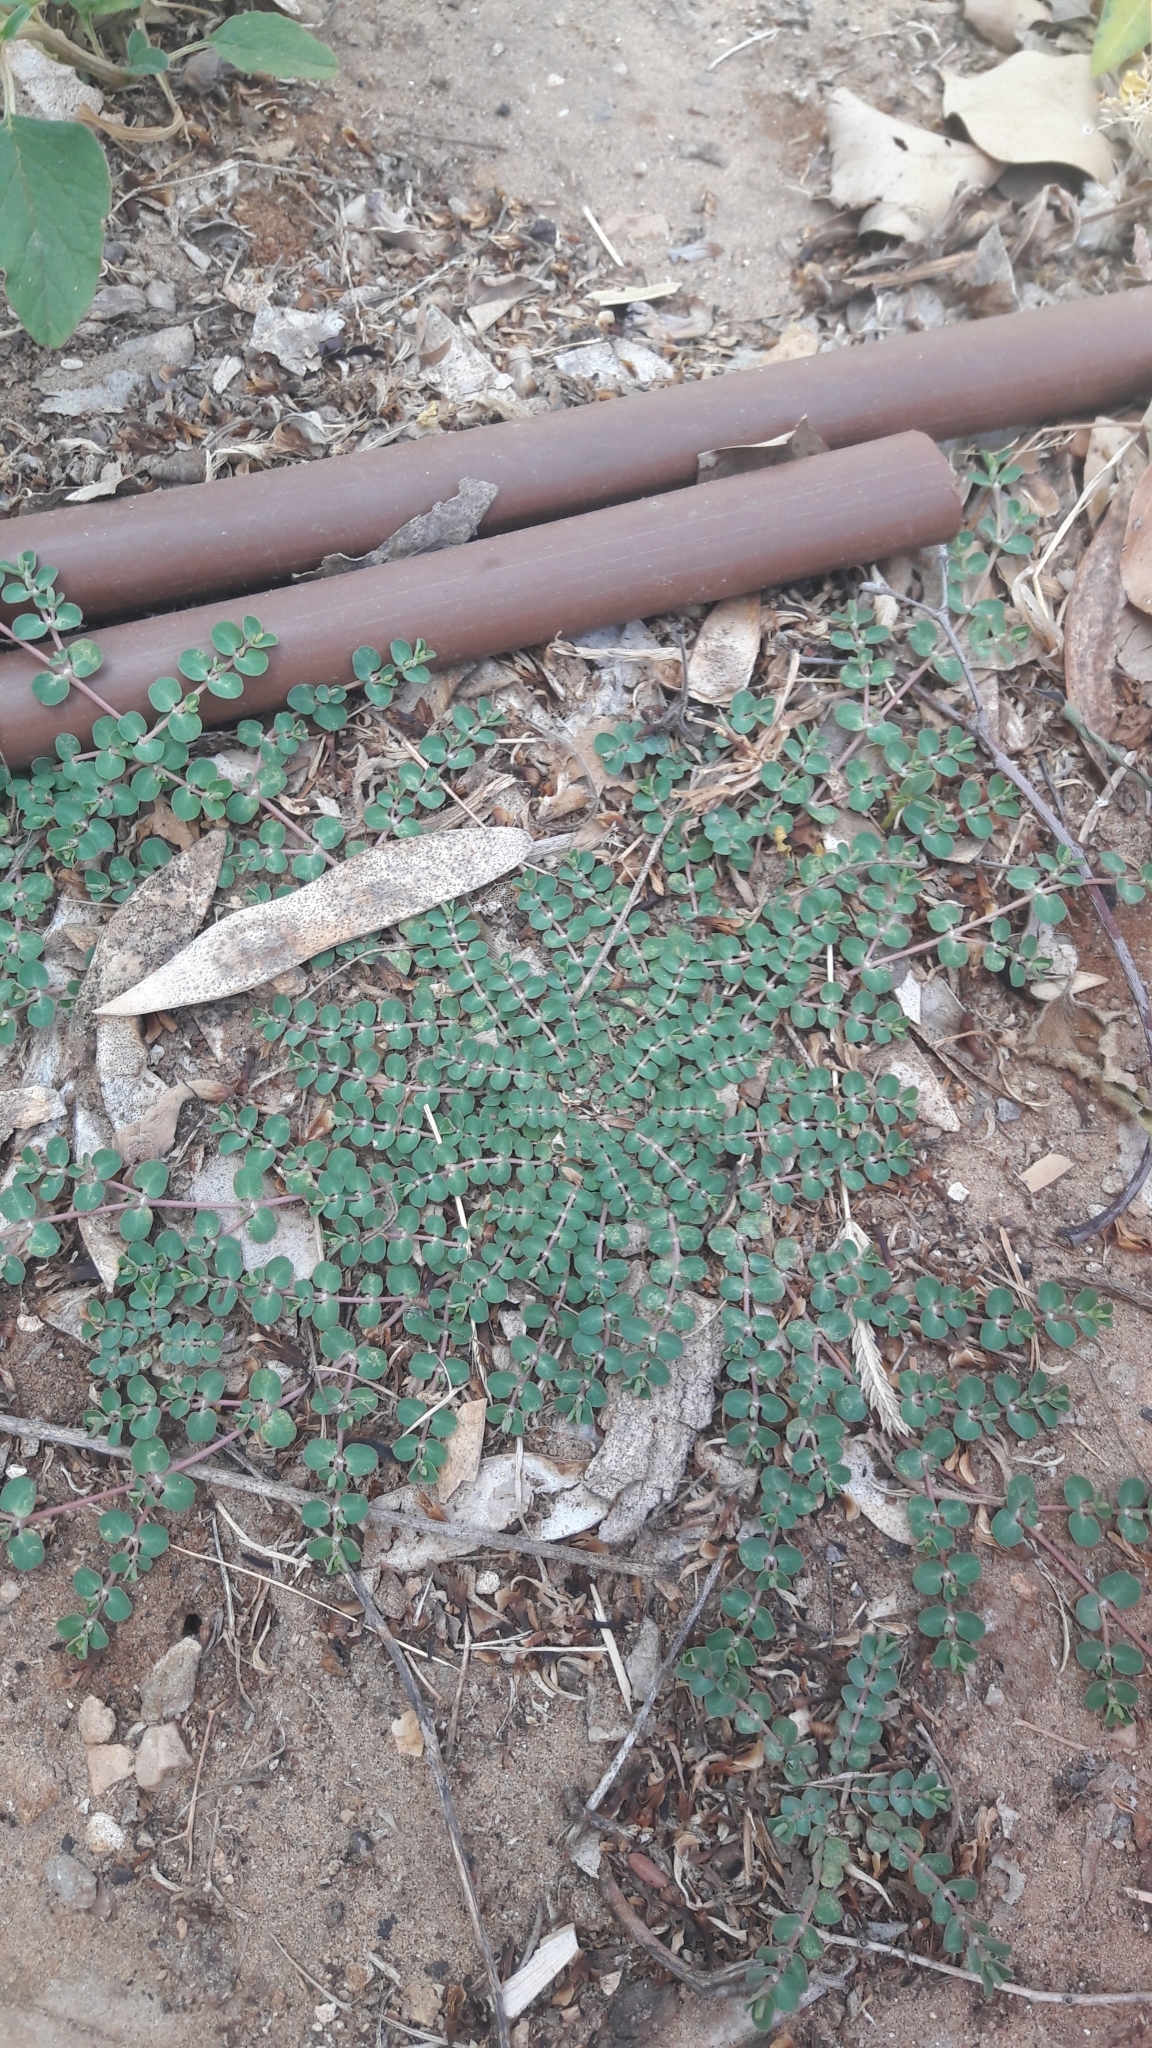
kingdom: Plantae
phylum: Tracheophyta
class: Magnoliopsida
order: Malpighiales
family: Euphorbiaceae
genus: Euphorbia
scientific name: Euphorbia serpens
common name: Matted sandmat
